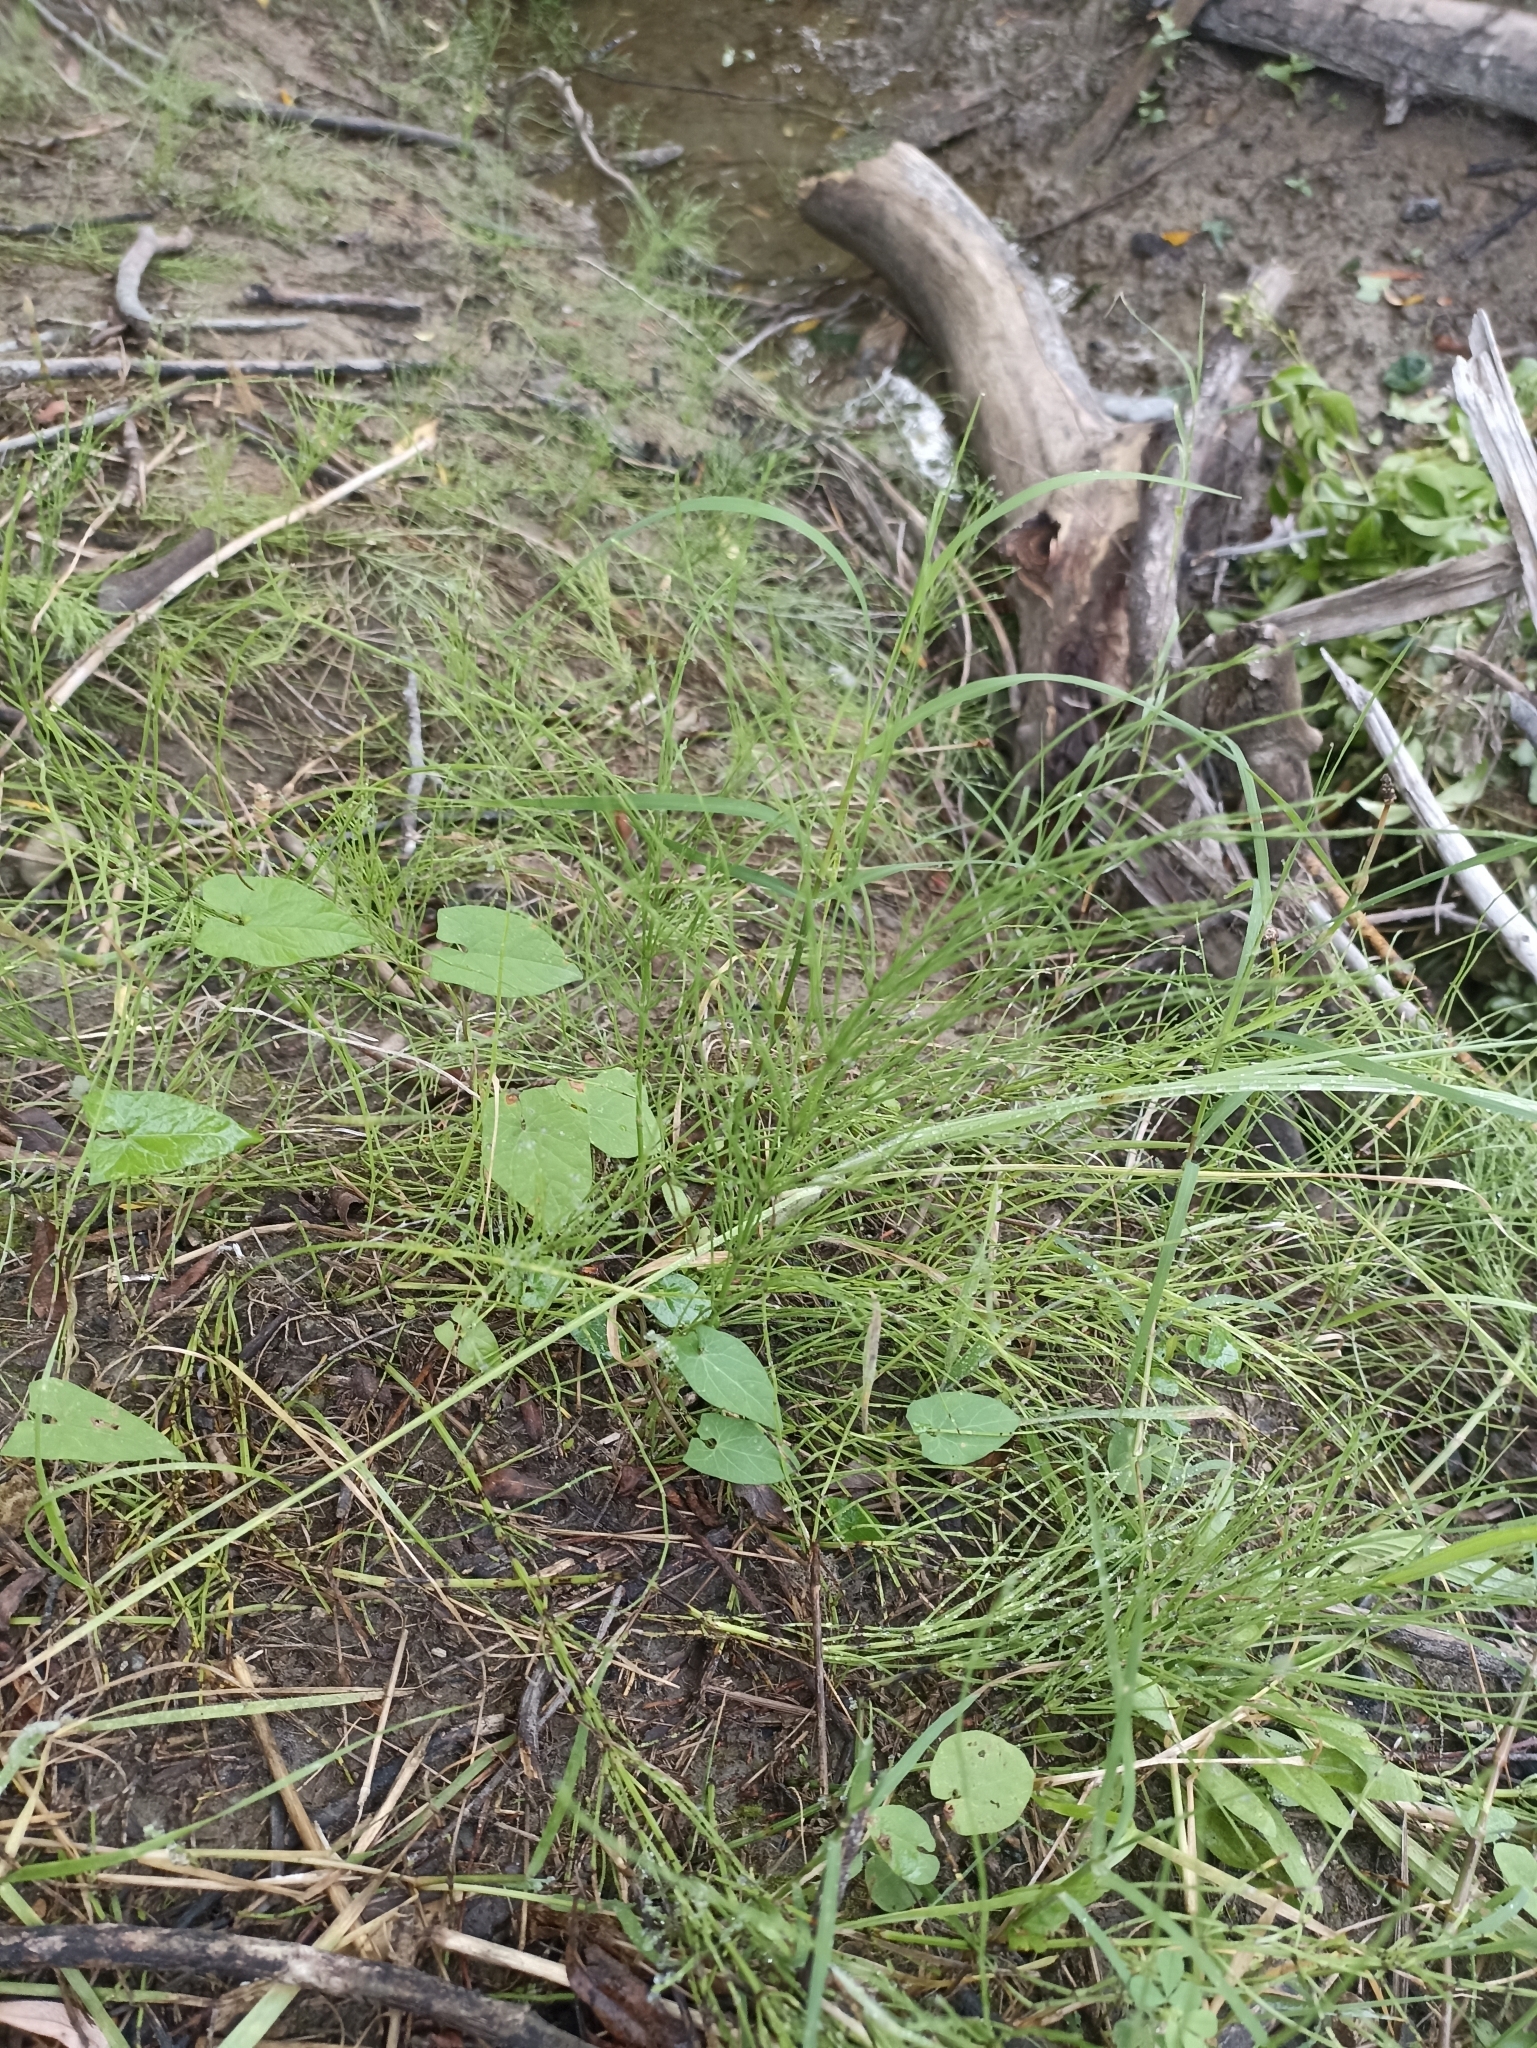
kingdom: Plantae
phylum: Tracheophyta
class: Polypodiopsida
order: Equisetales
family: Equisetaceae
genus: Equisetum
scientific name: Equisetum arvense
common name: Field horsetail
